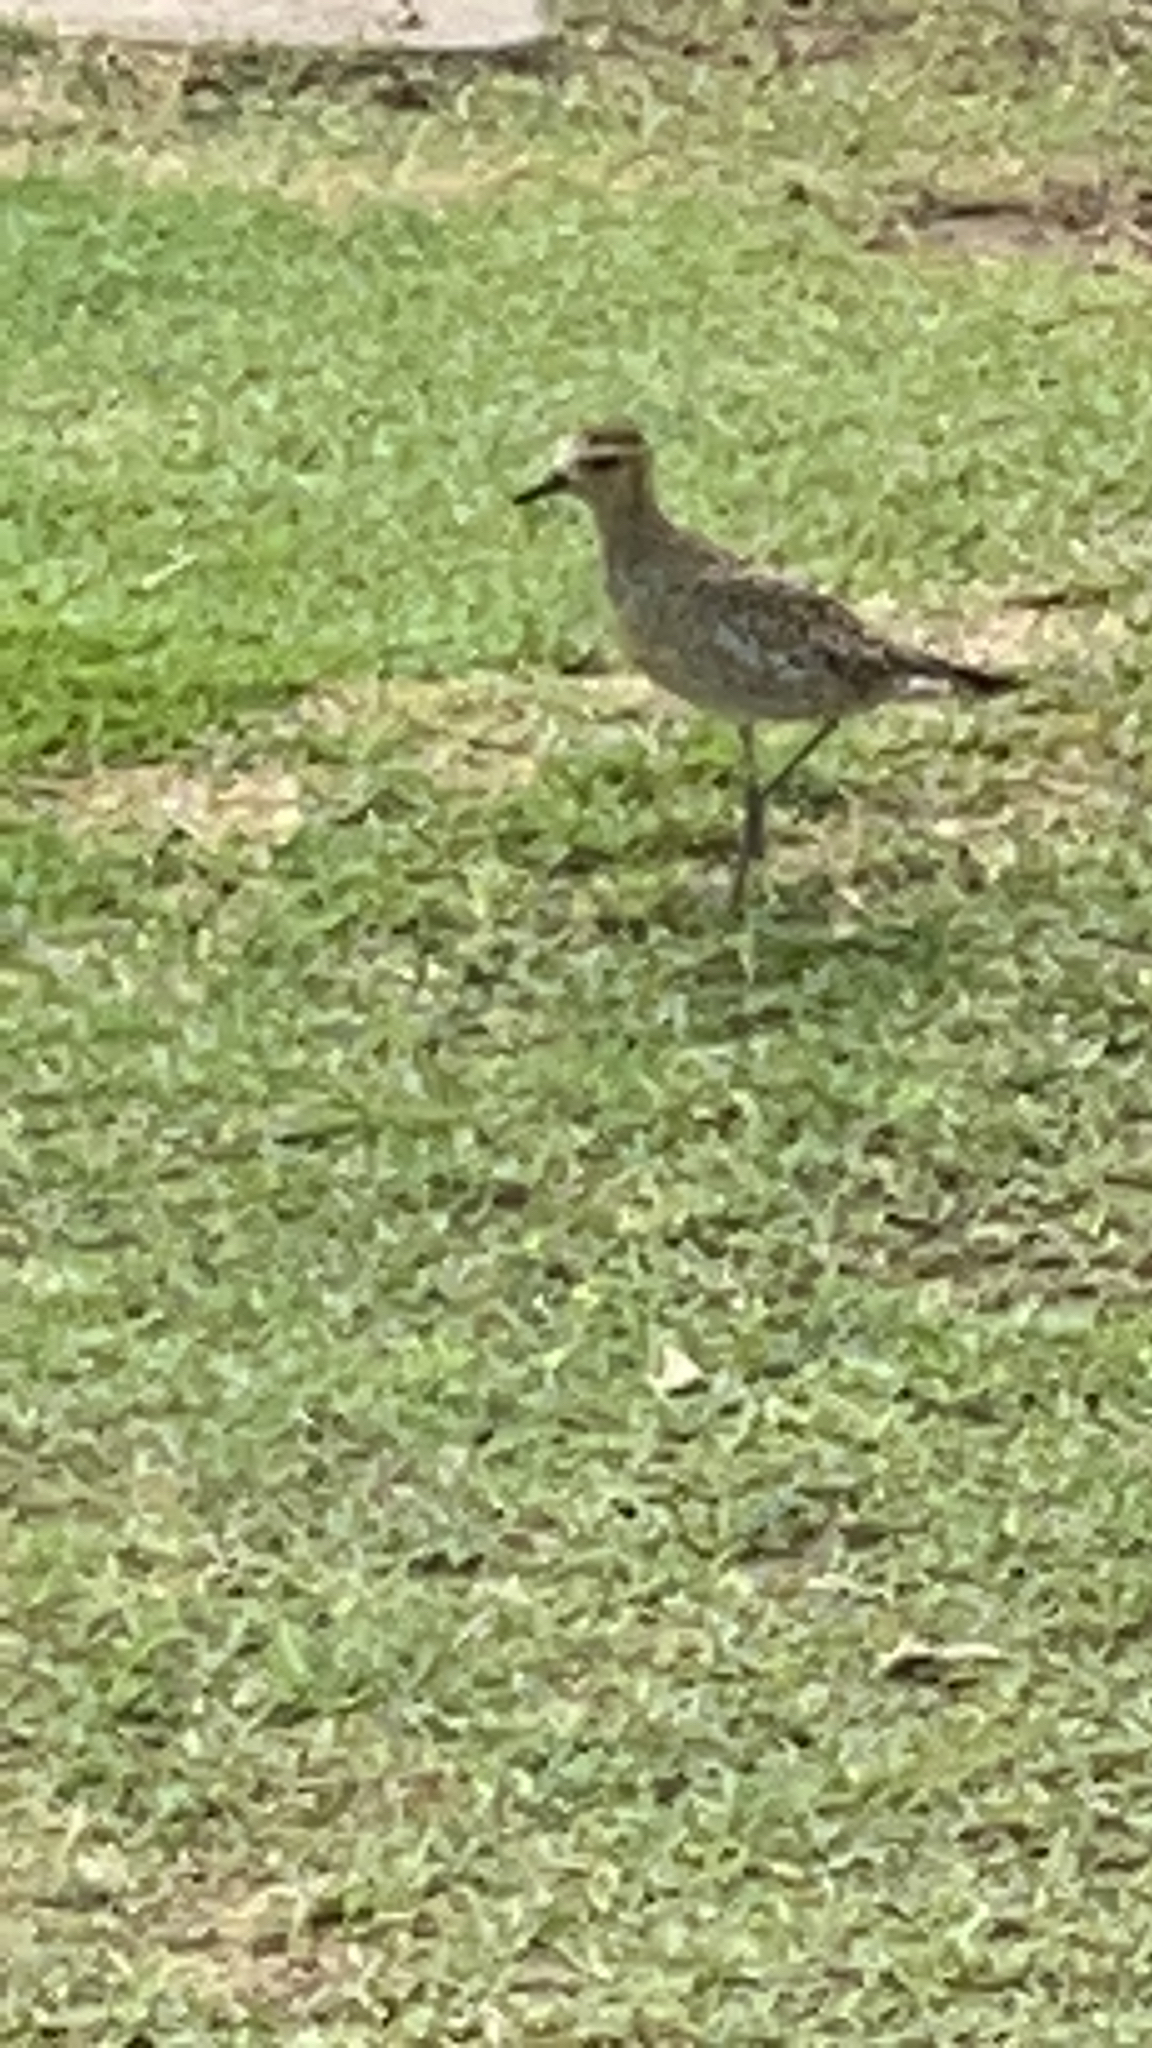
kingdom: Animalia
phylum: Chordata
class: Aves
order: Charadriiformes
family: Charadriidae
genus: Pluvialis
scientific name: Pluvialis fulva
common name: Pacific golden plover
